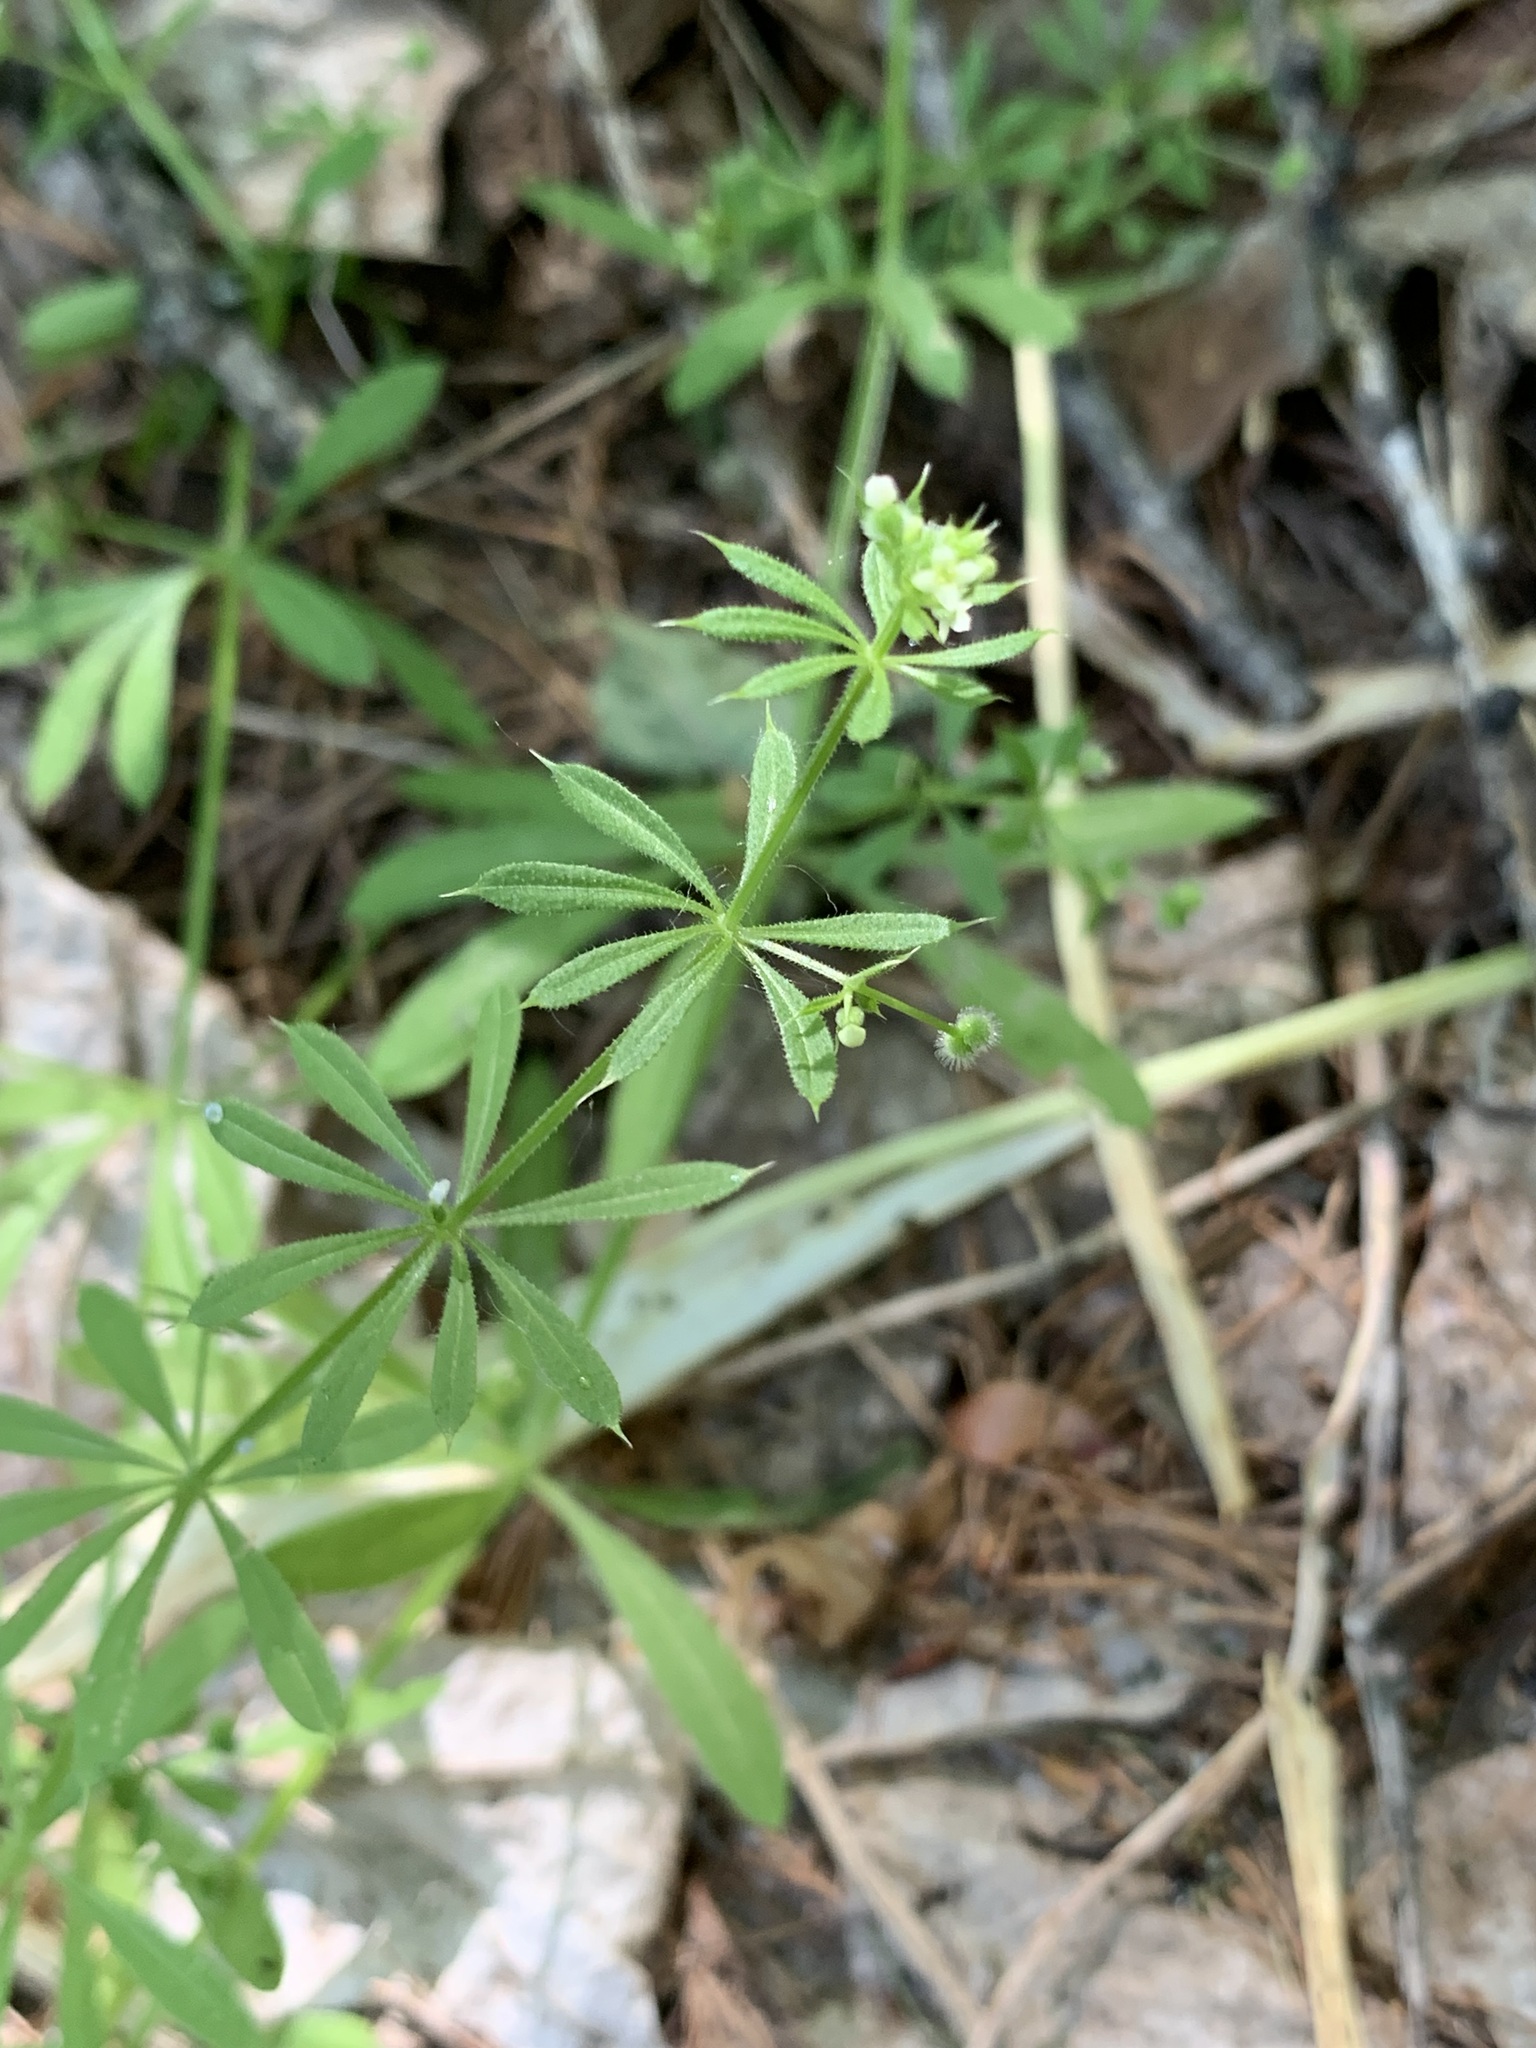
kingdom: Plantae
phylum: Tracheophyta
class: Magnoliopsida
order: Gentianales
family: Rubiaceae
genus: Galium
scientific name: Galium spurium
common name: False cleavers
